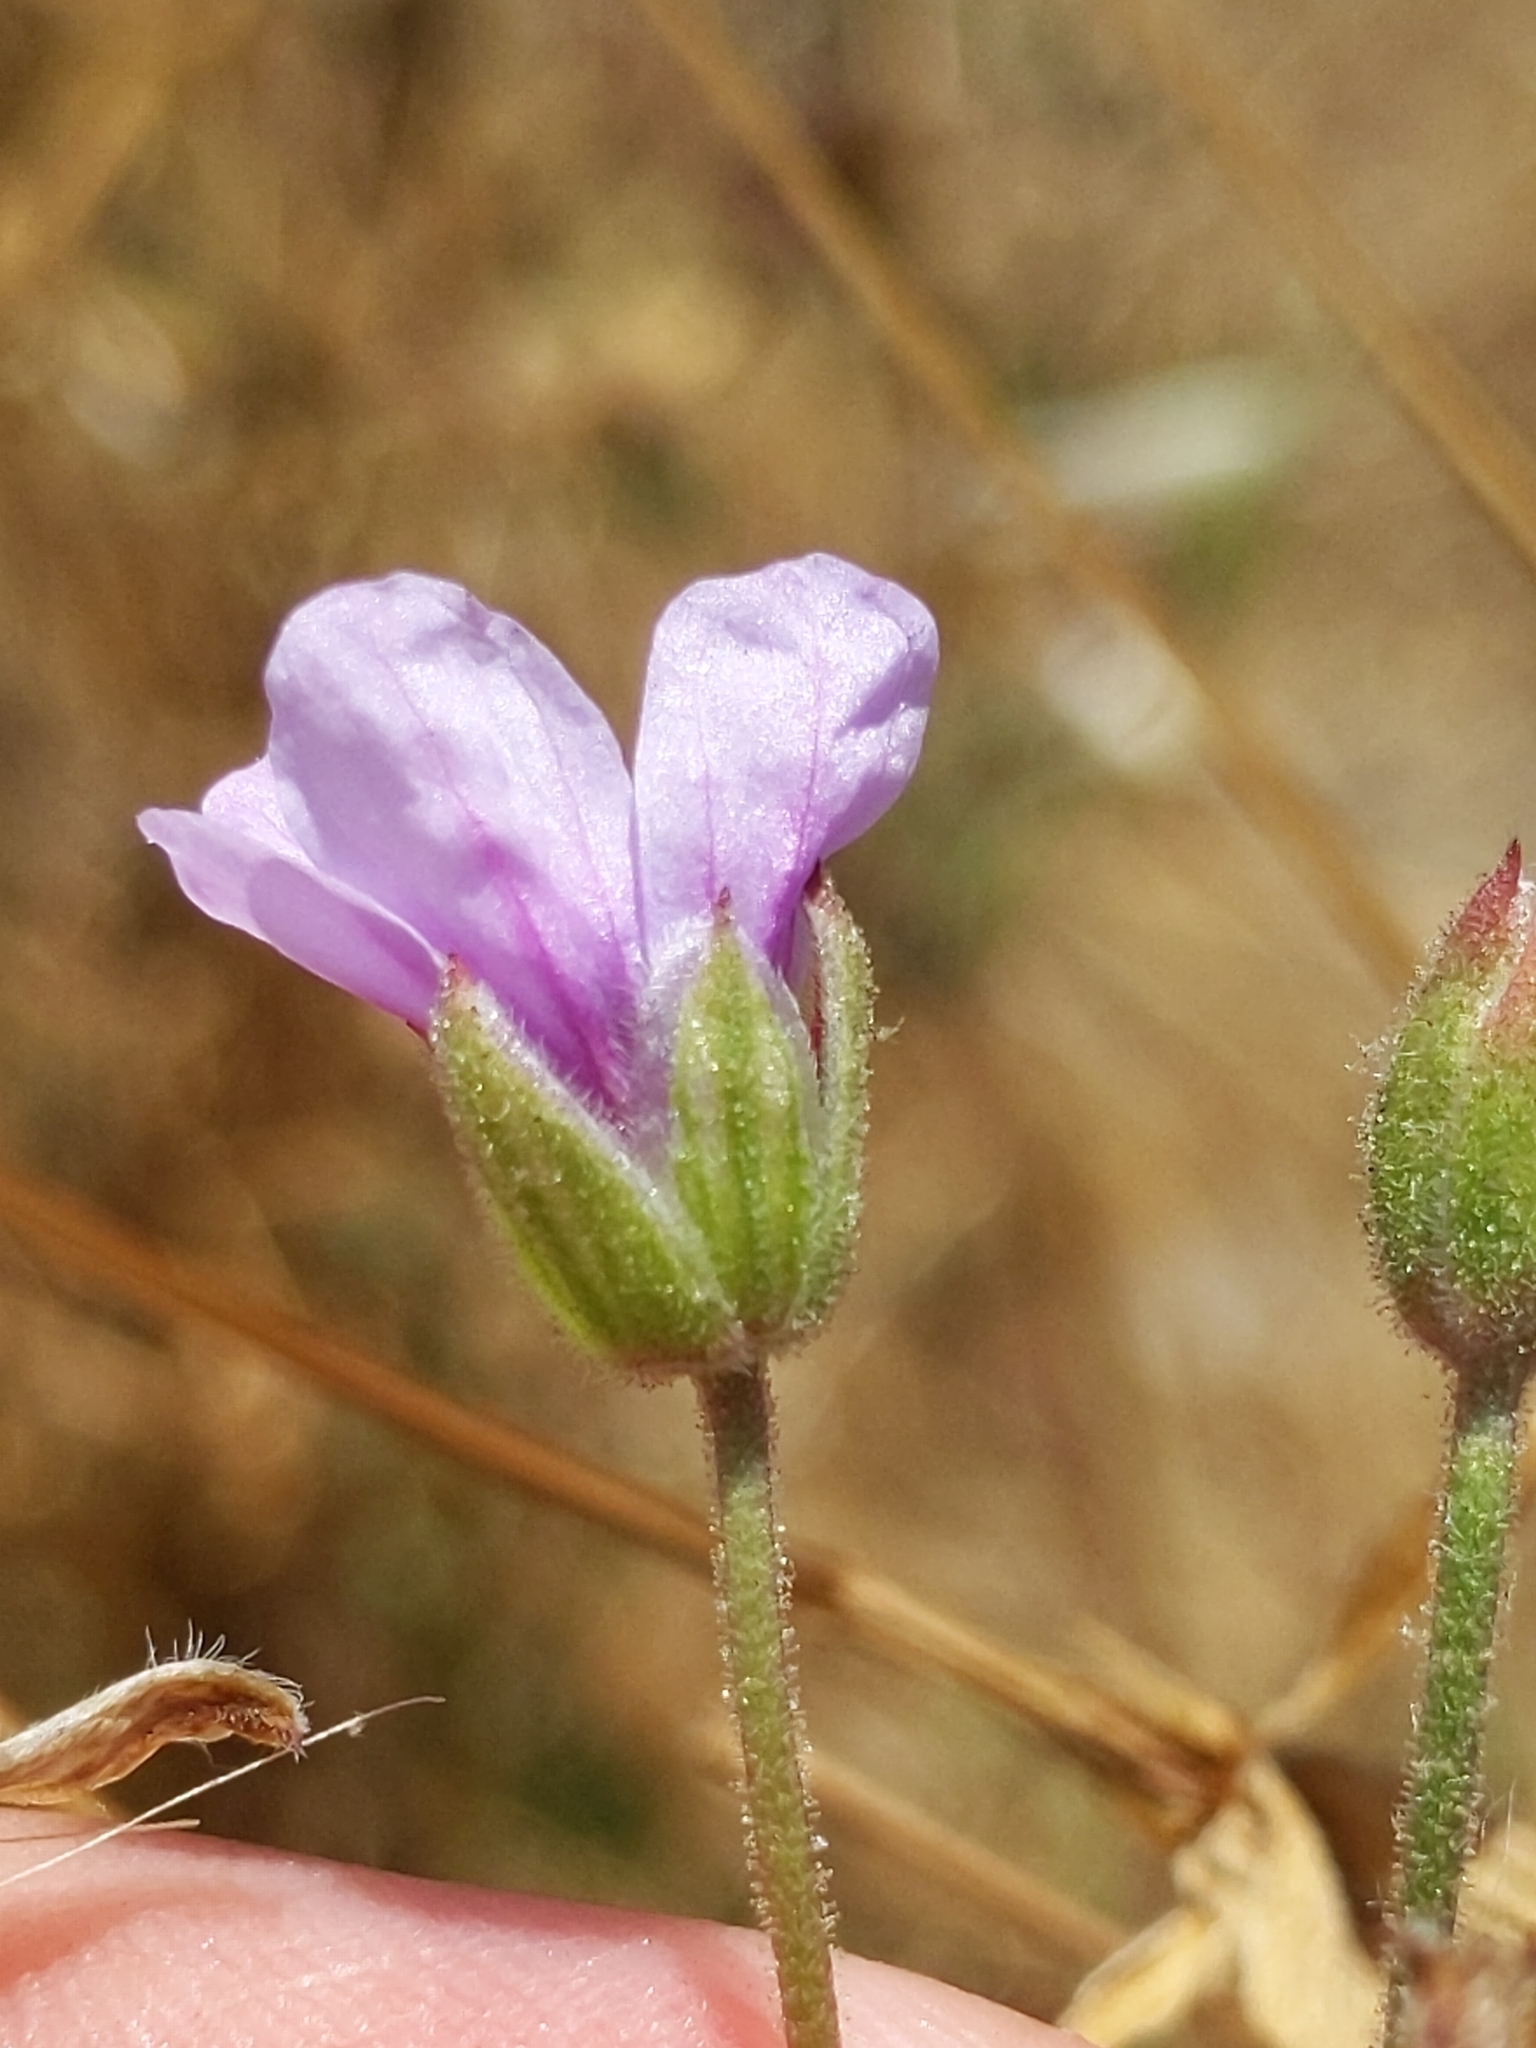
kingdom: Plantae
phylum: Tracheophyta
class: Magnoliopsida
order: Geraniales
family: Geraniaceae
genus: Erodium
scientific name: Erodium botrys
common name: Mediterranean stork's-bill
